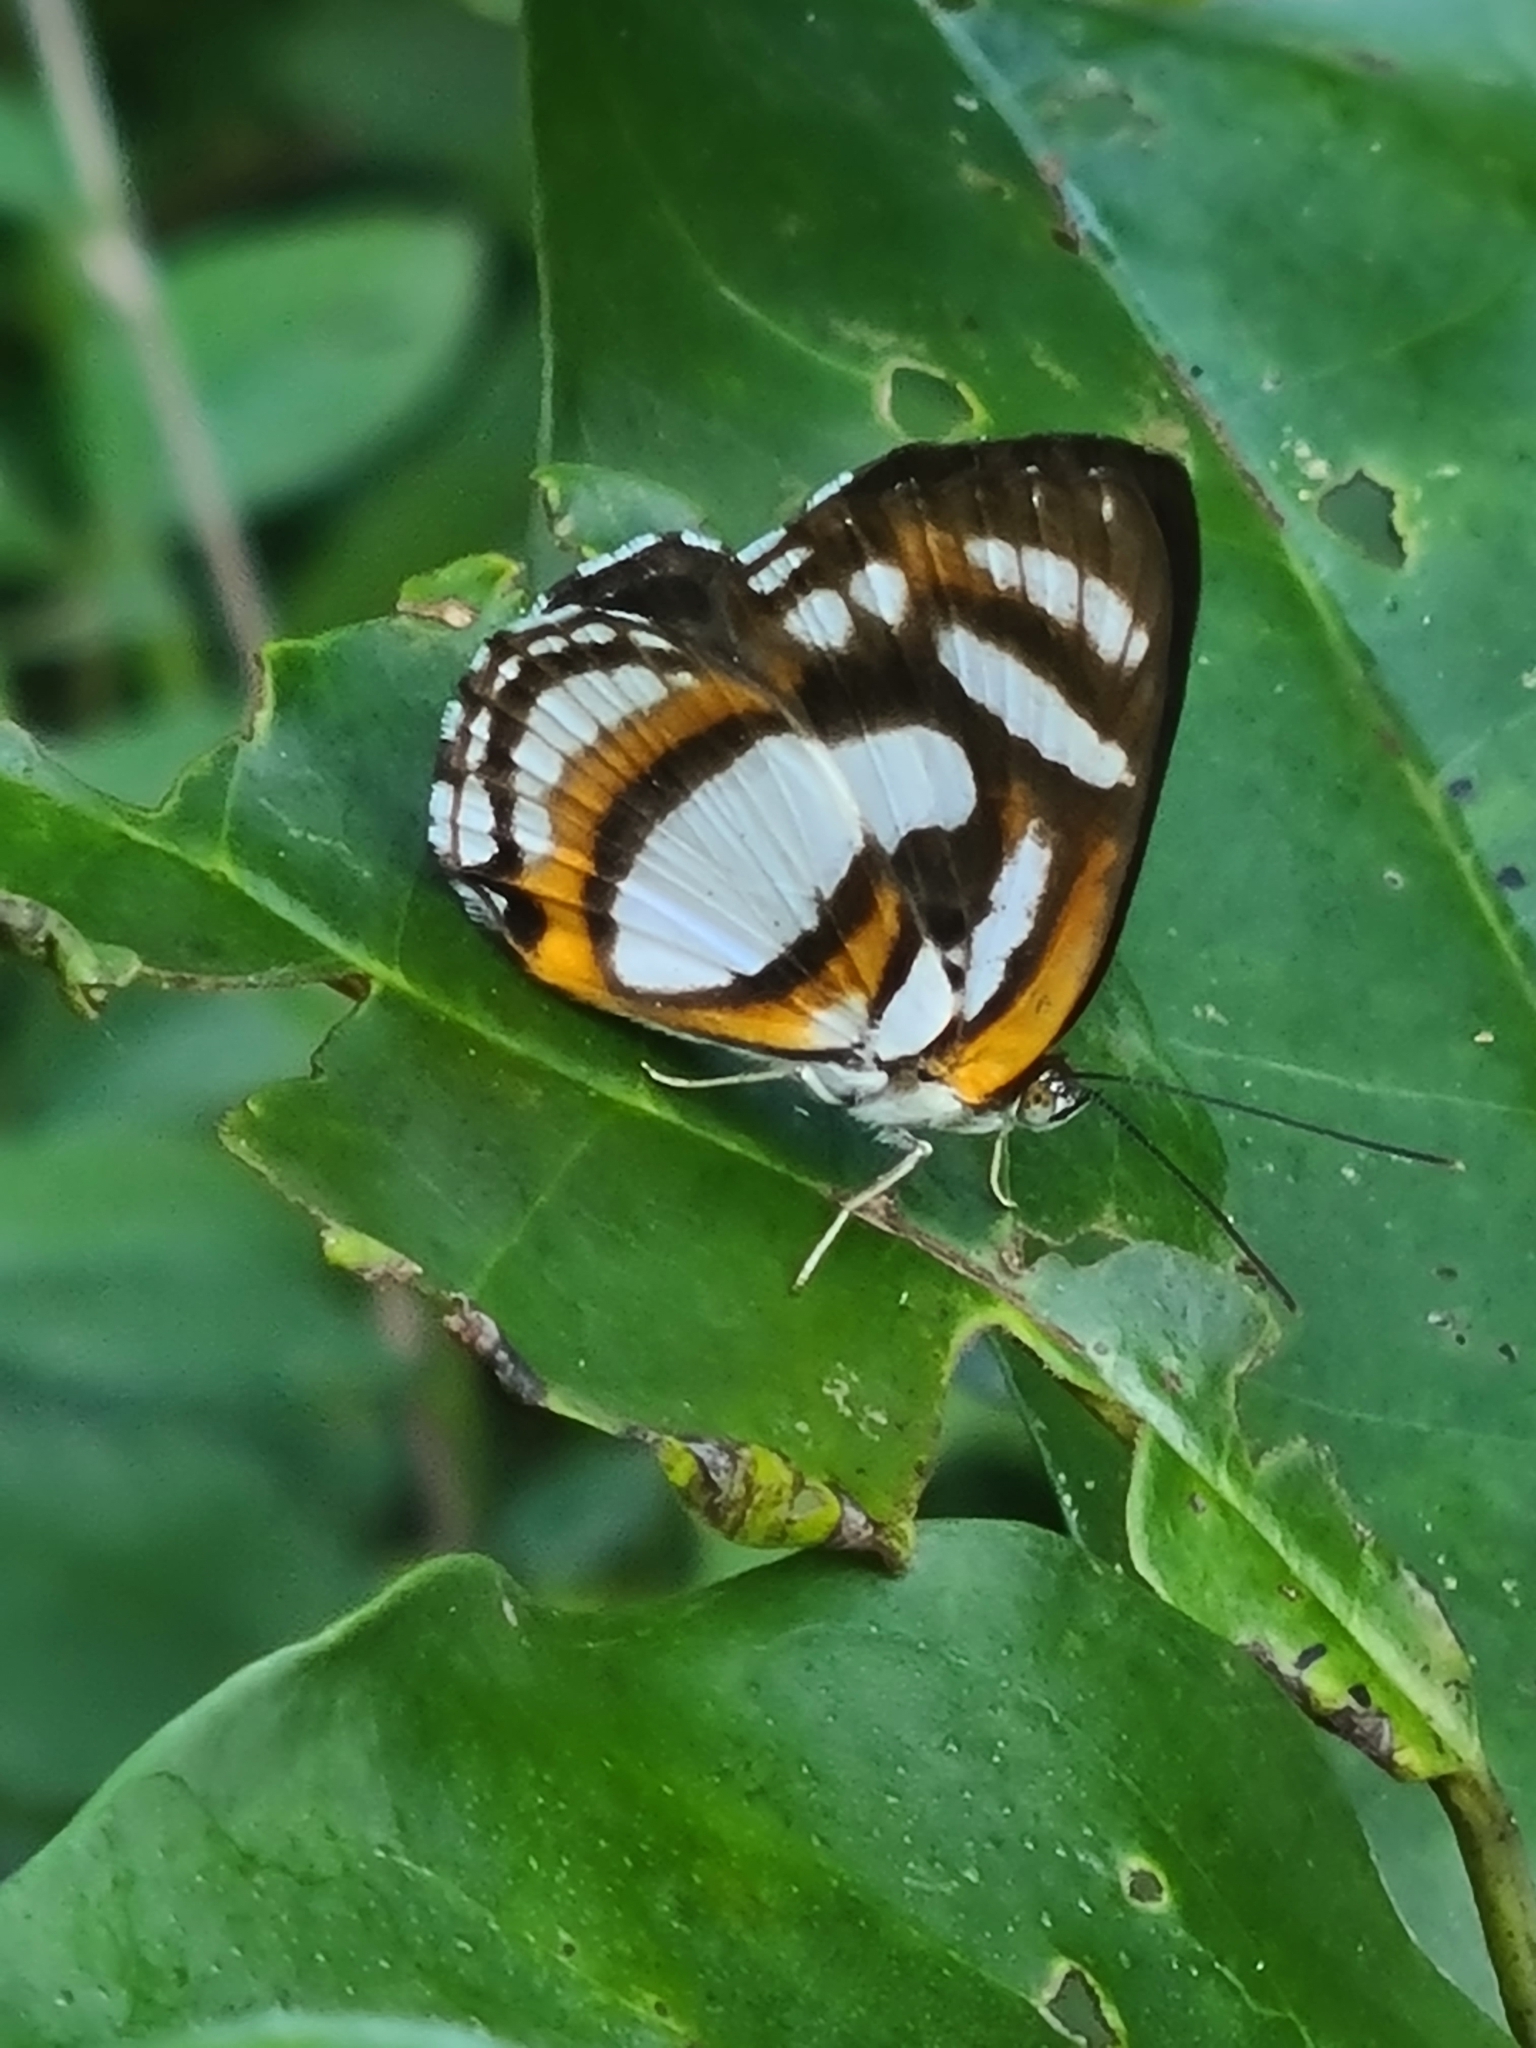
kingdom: Animalia
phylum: Arthropoda
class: Insecta
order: Lepidoptera
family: Riodinidae
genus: Thisbe
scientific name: Thisbe irenea
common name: Irenia metalmark
